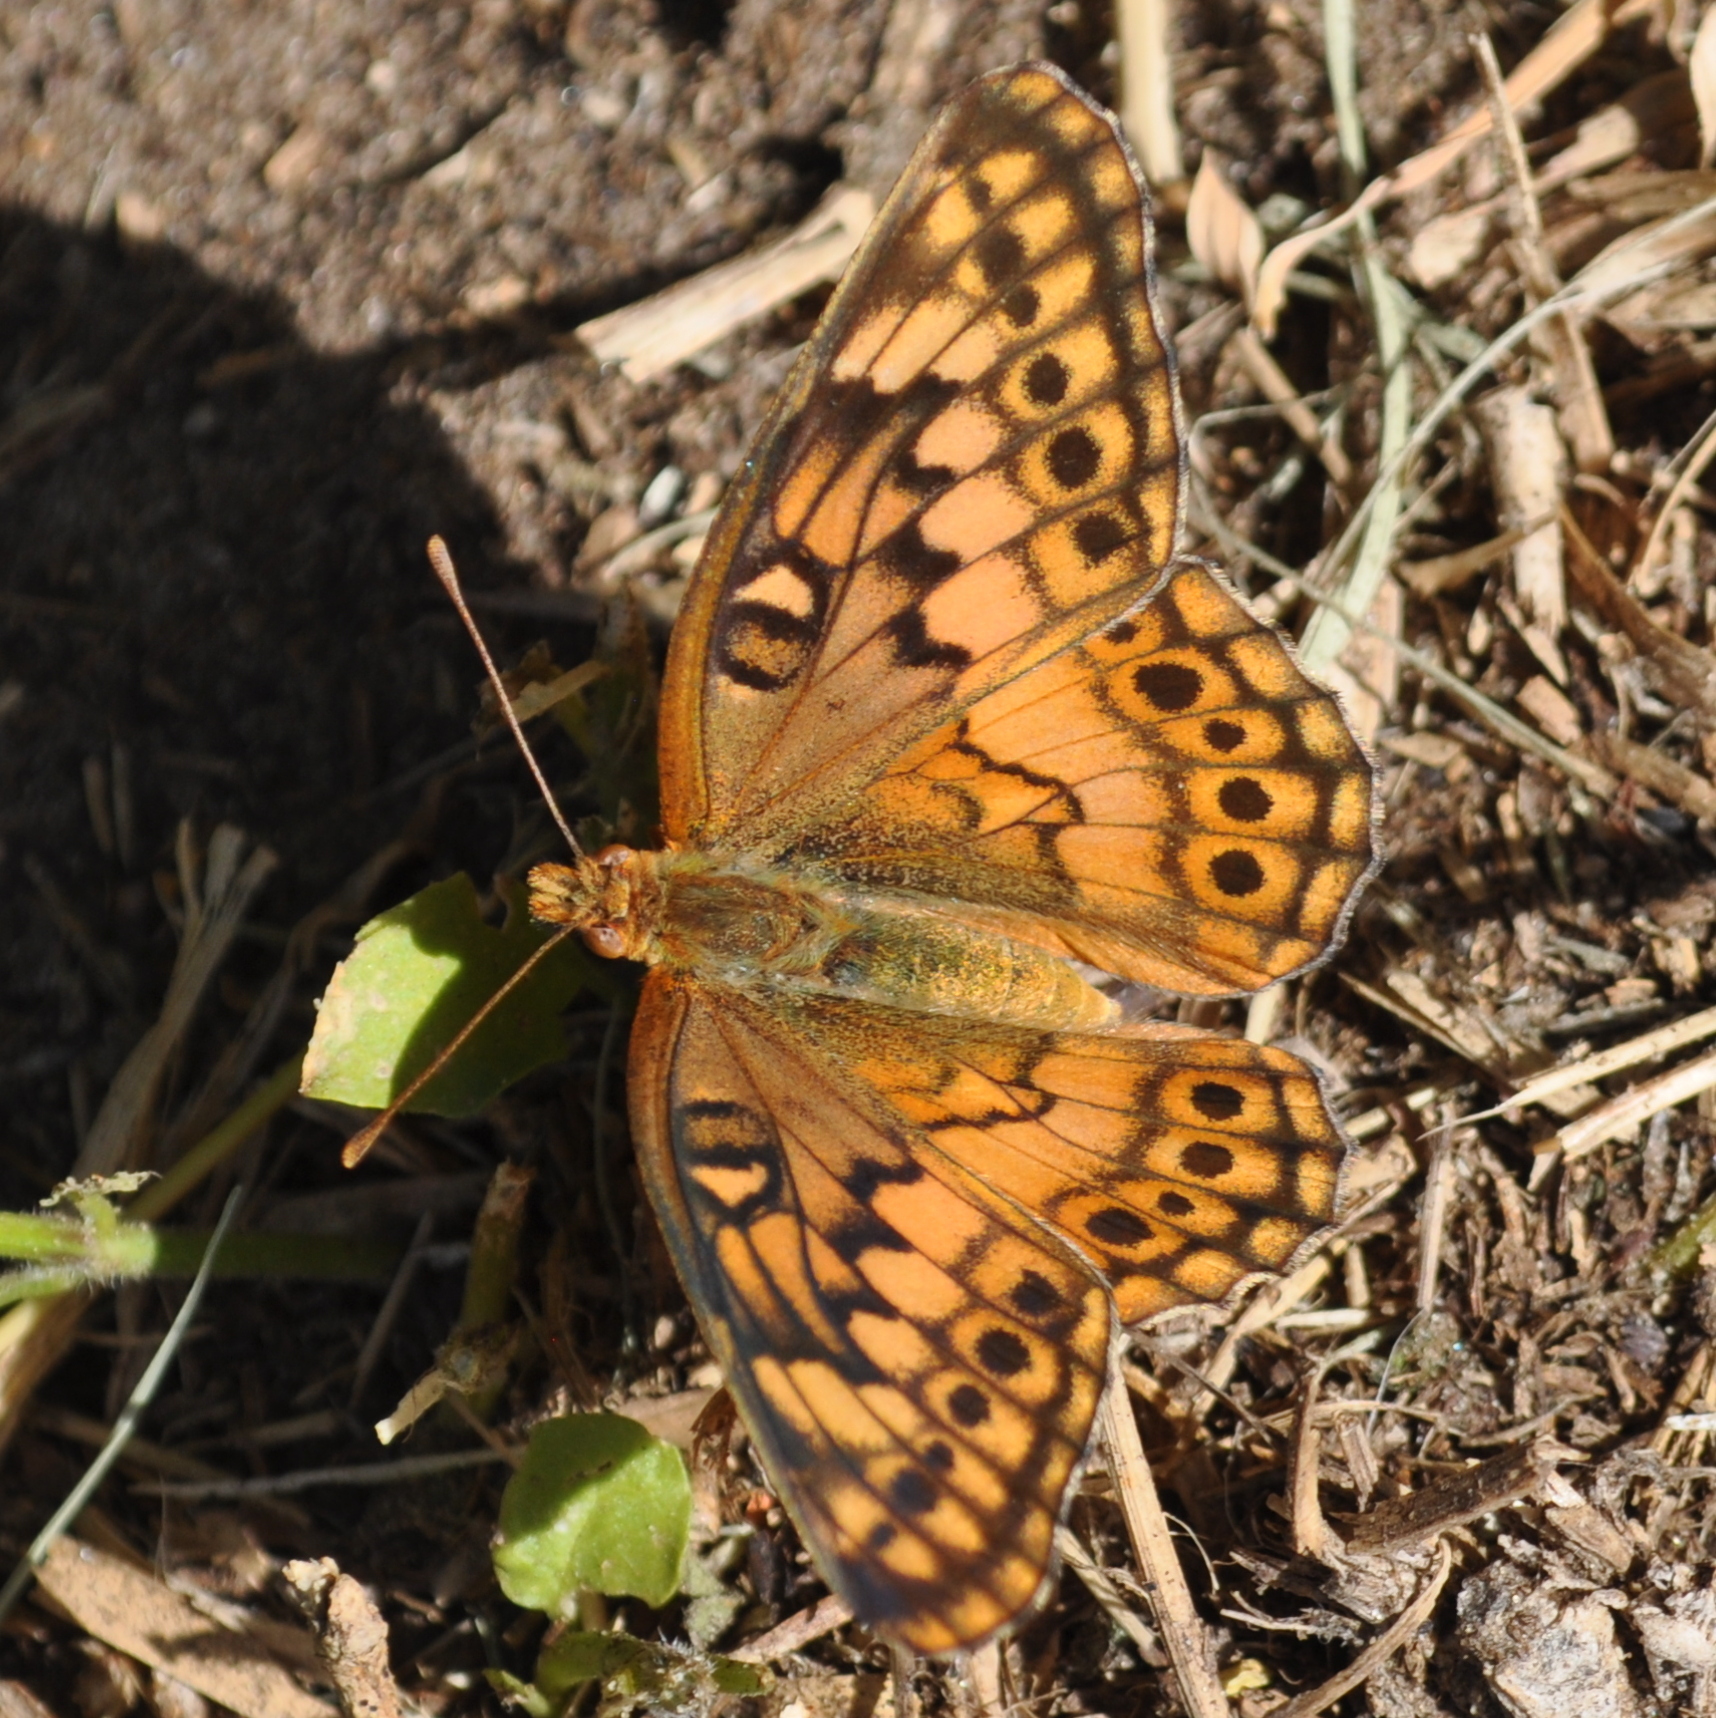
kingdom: Animalia
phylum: Arthropoda
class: Insecta
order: Lepidoptera
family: Nymphalidae
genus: Euptoieta
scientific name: Euptoieta hortensia
